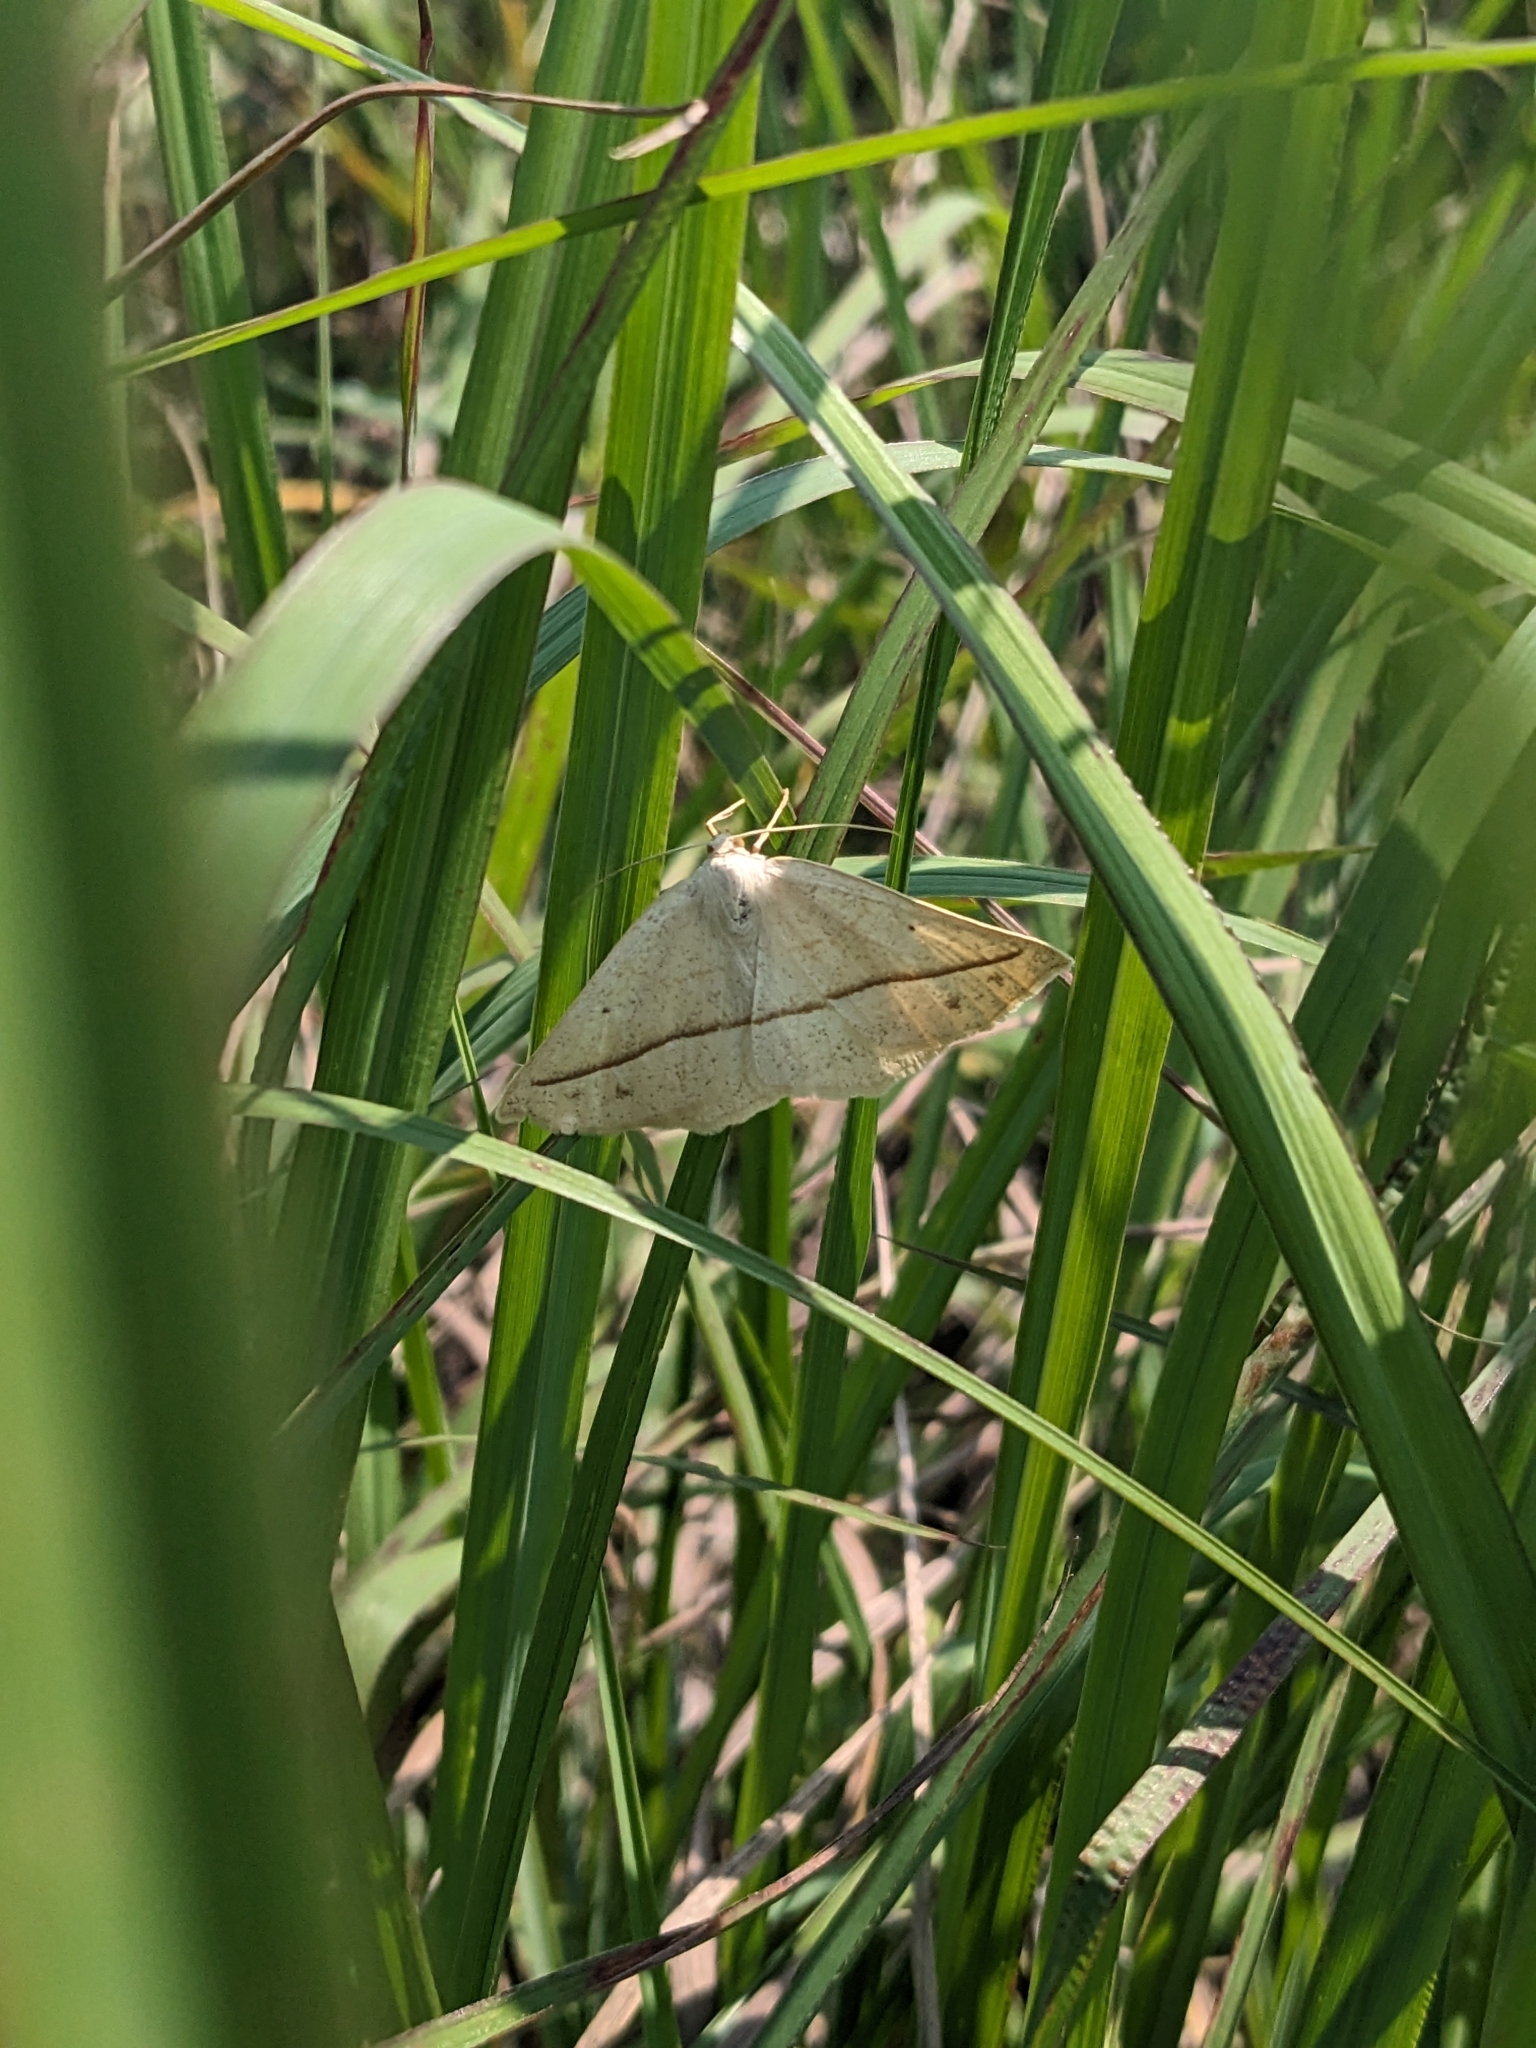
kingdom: Animalia
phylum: Arthropoda
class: Insecta
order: Lepidoptera
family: Geometridae
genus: Eusarca
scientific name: Eusarca confusaria
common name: Confused eusarca
